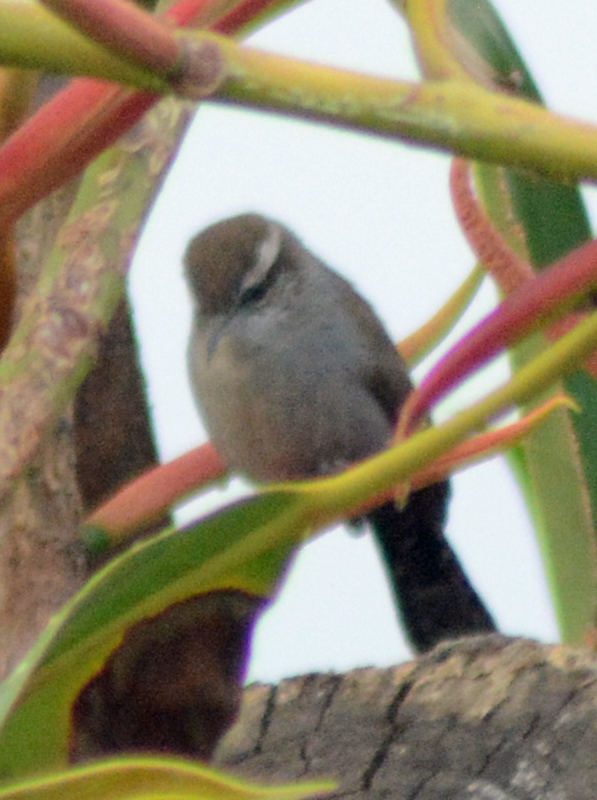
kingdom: Animalia
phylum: Chordata
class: Aves
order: Passeriformes
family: Troglodytidae
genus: Thryomanes
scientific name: Thryomanes bewickii
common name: Bewick's wren
